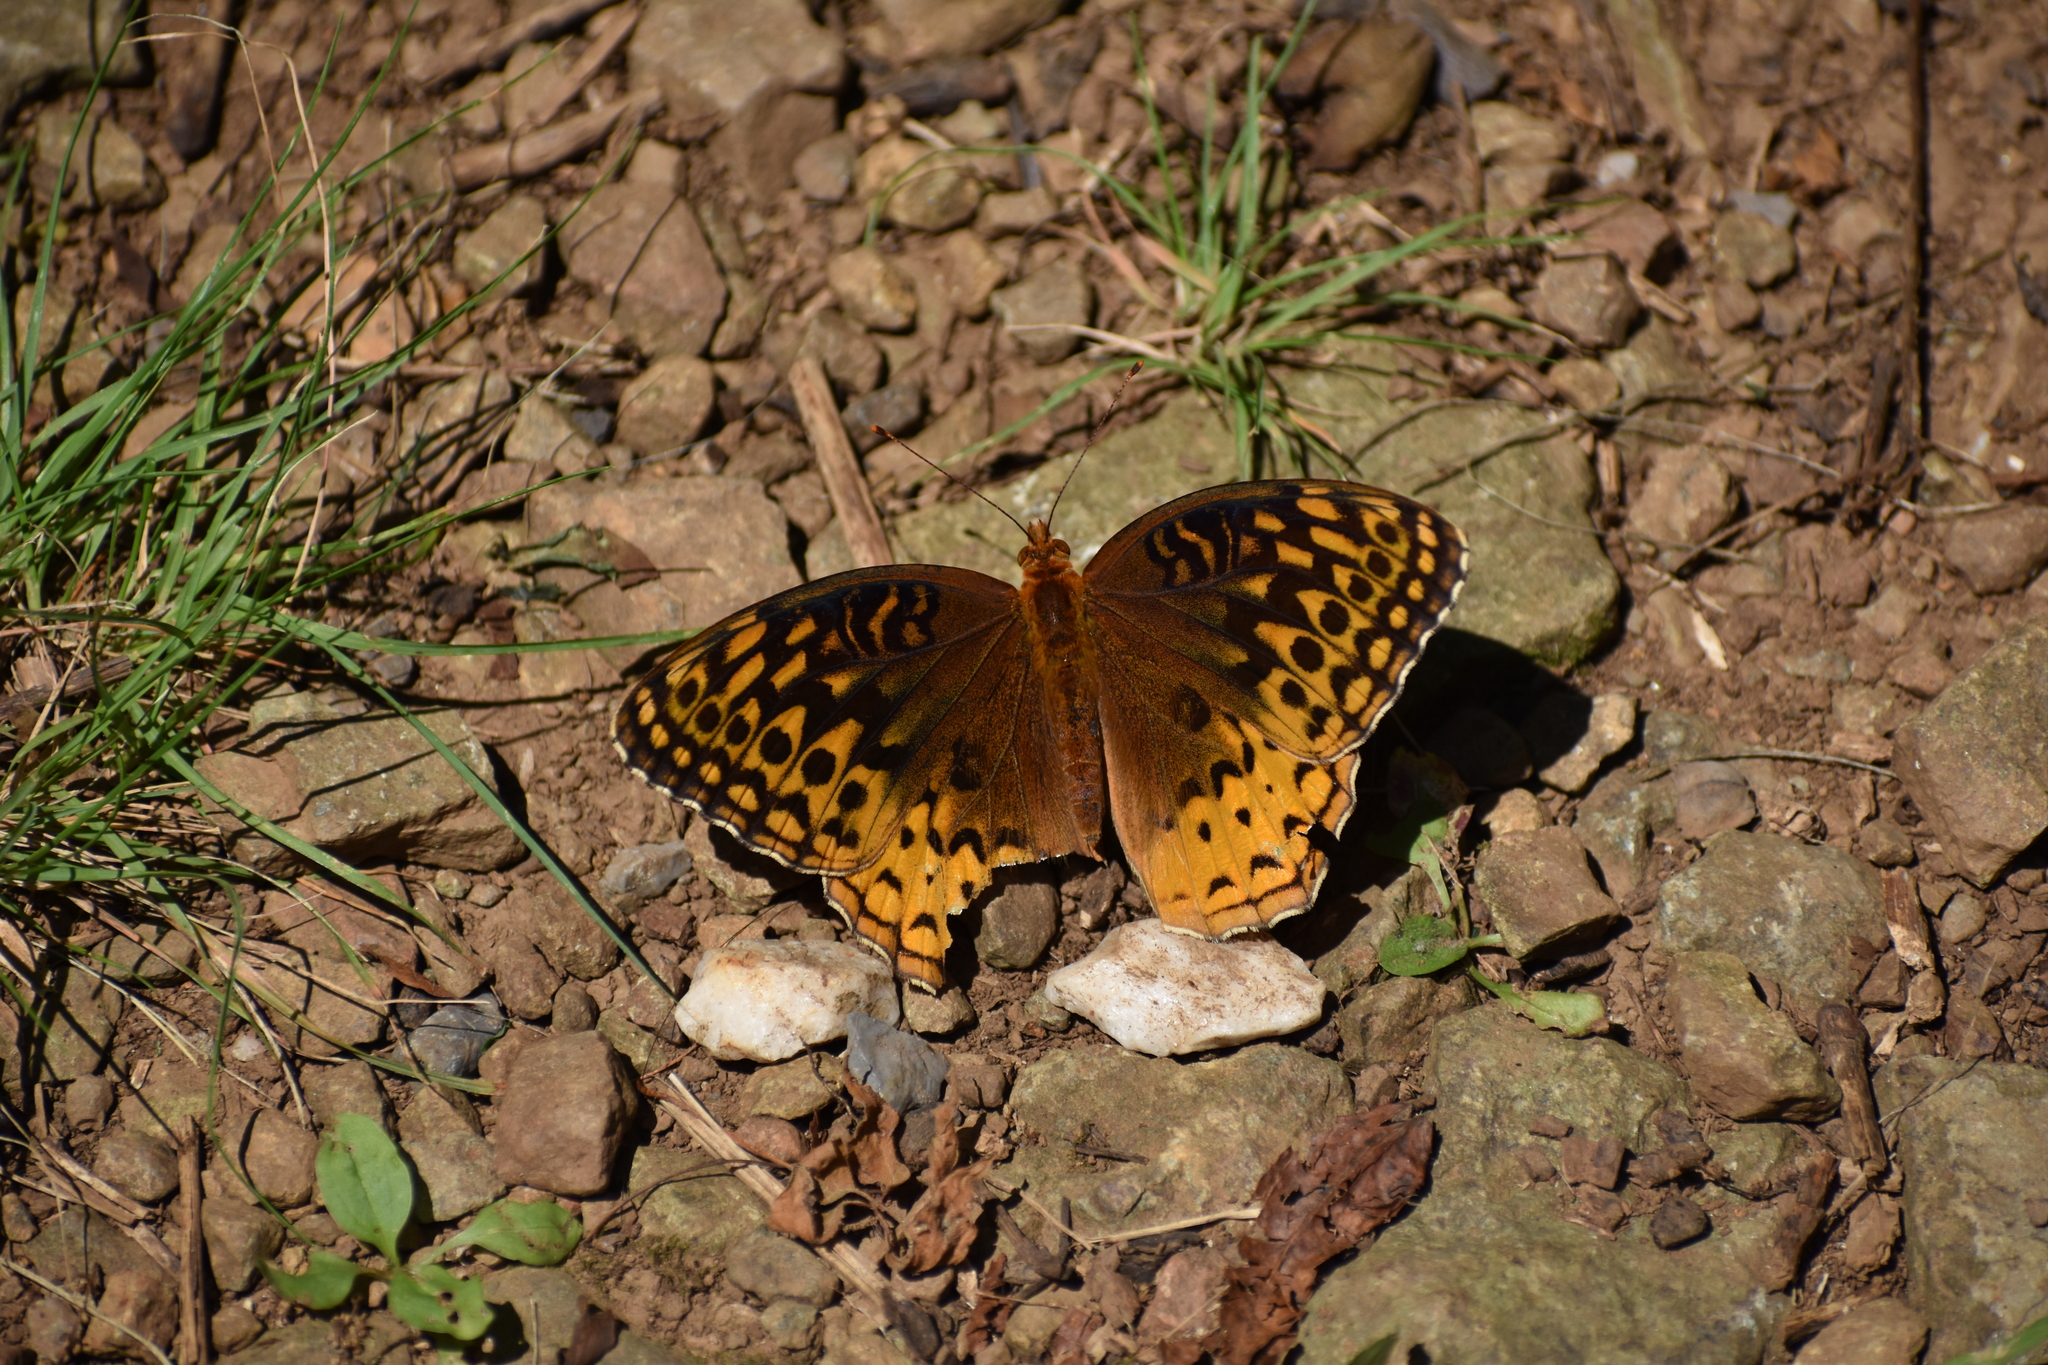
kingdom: Animalia
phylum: Arthropoda
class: Insecta
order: Lepidoptera
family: Nymphalidae
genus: Speyeria
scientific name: Speyeria cybele
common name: Great spangled fritillary
